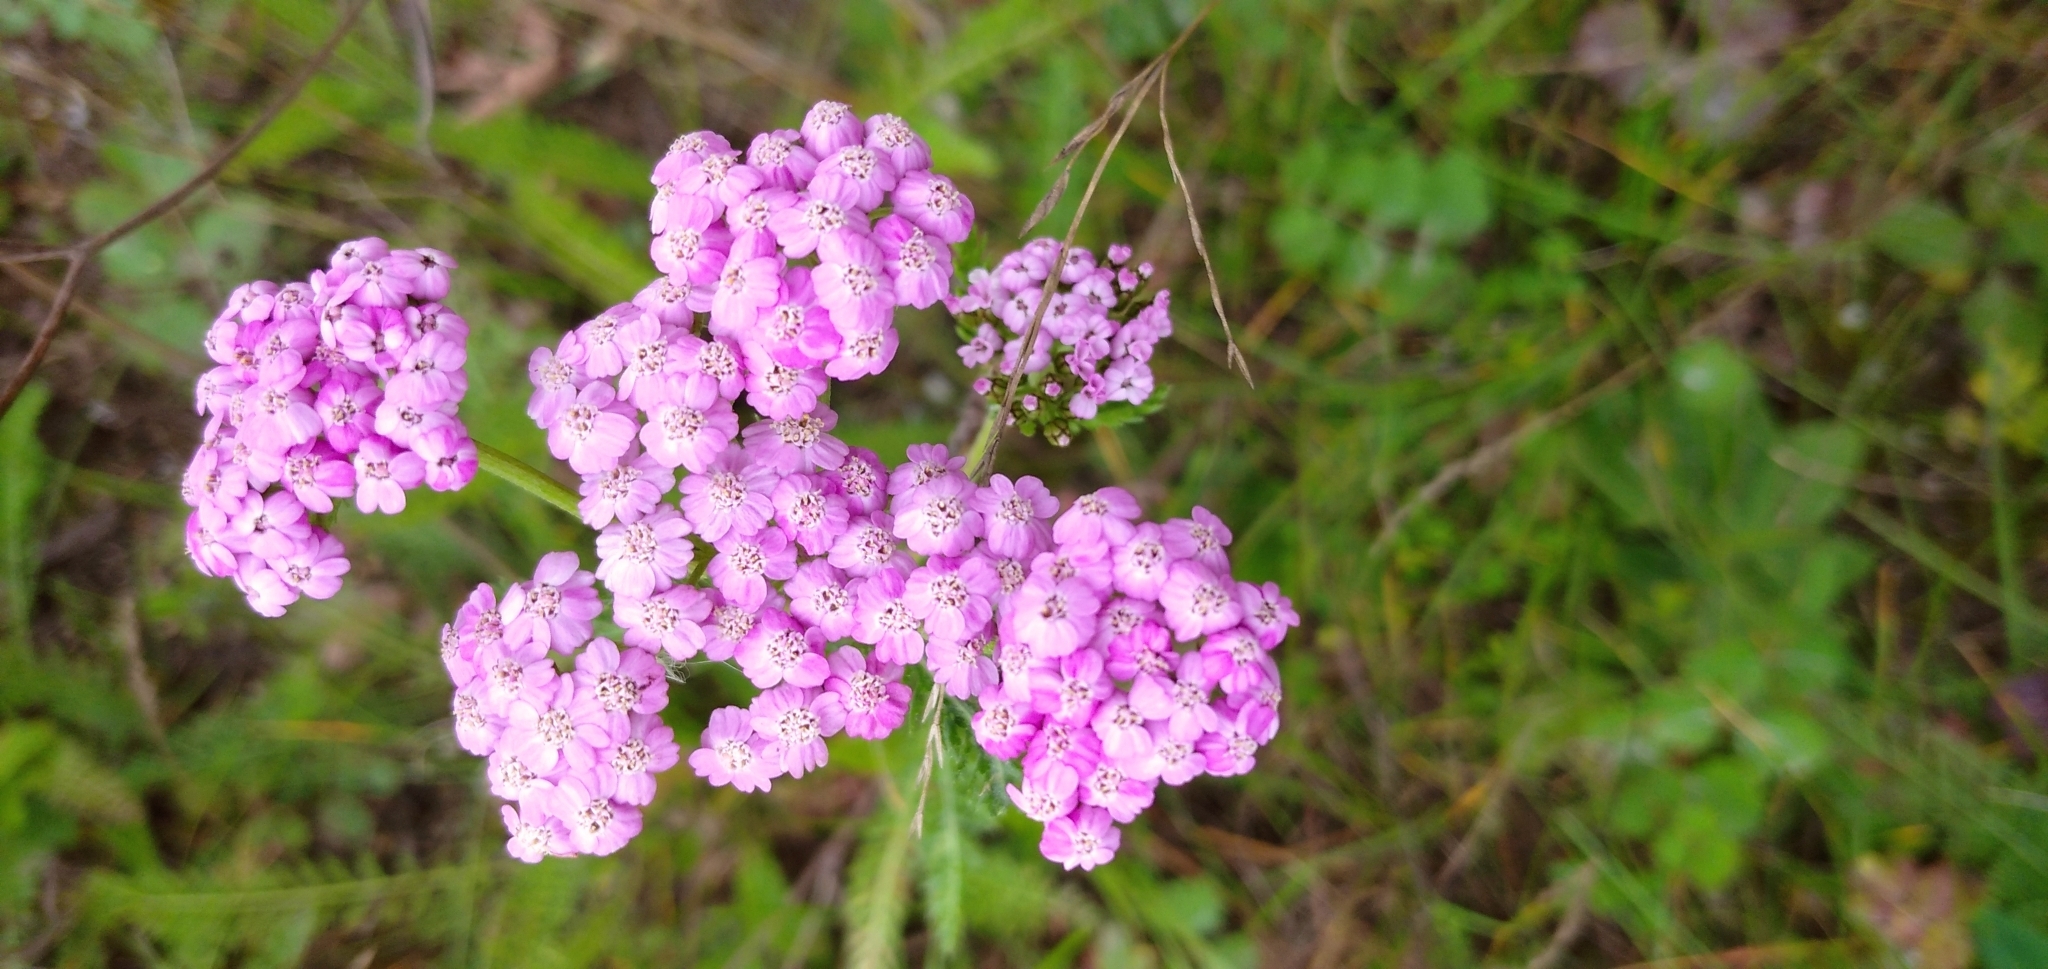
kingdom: Plantae
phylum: Tracheophyta
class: Magnoliopsida
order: Asterales
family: Asteraceae
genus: Achillea
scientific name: Achillea asiatica
